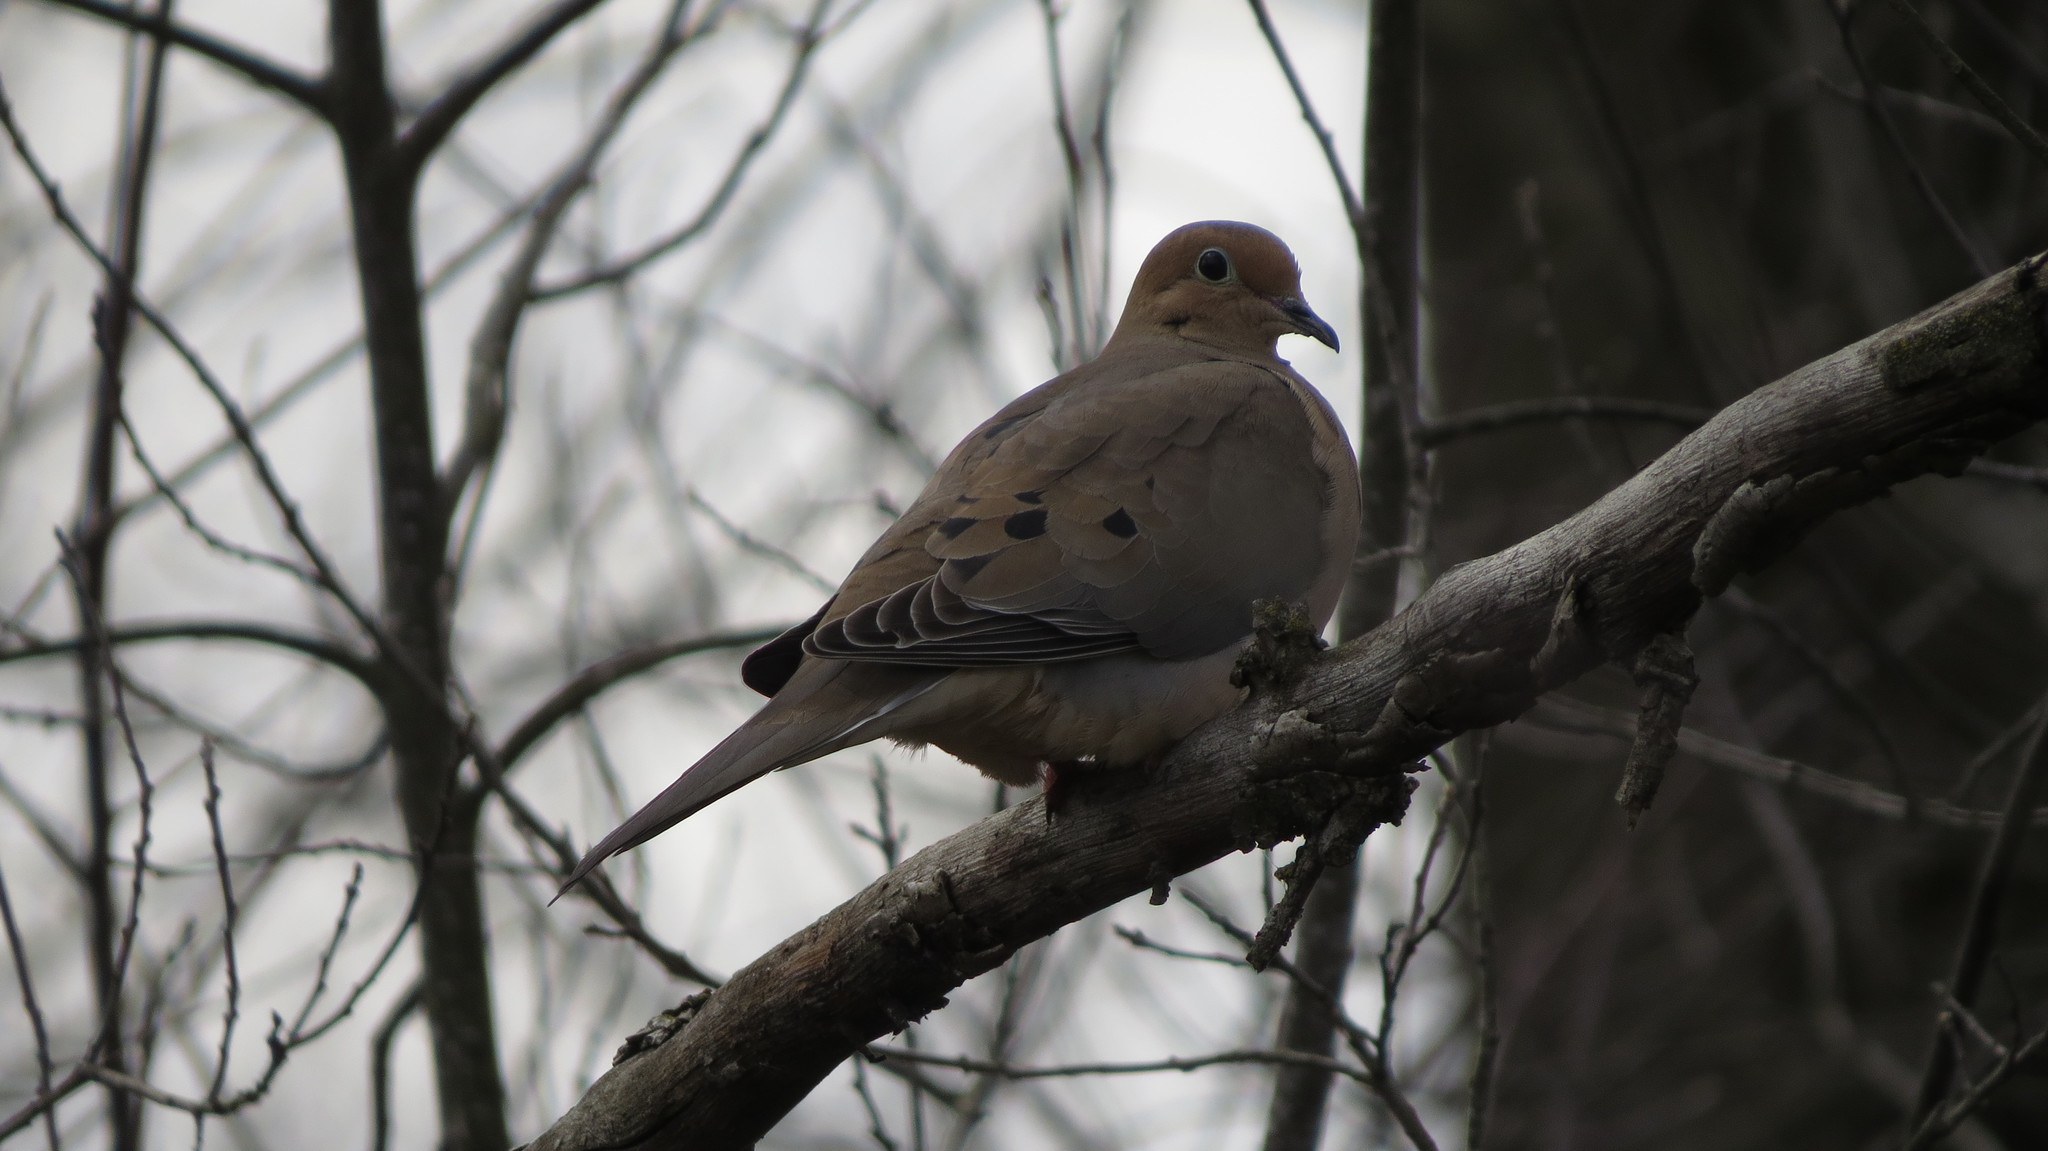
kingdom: Animalia
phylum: Chordata
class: Aves
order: Columbiformes
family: Columbidae
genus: Zenaida
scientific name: Zenaida macroura
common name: Mourning dove
